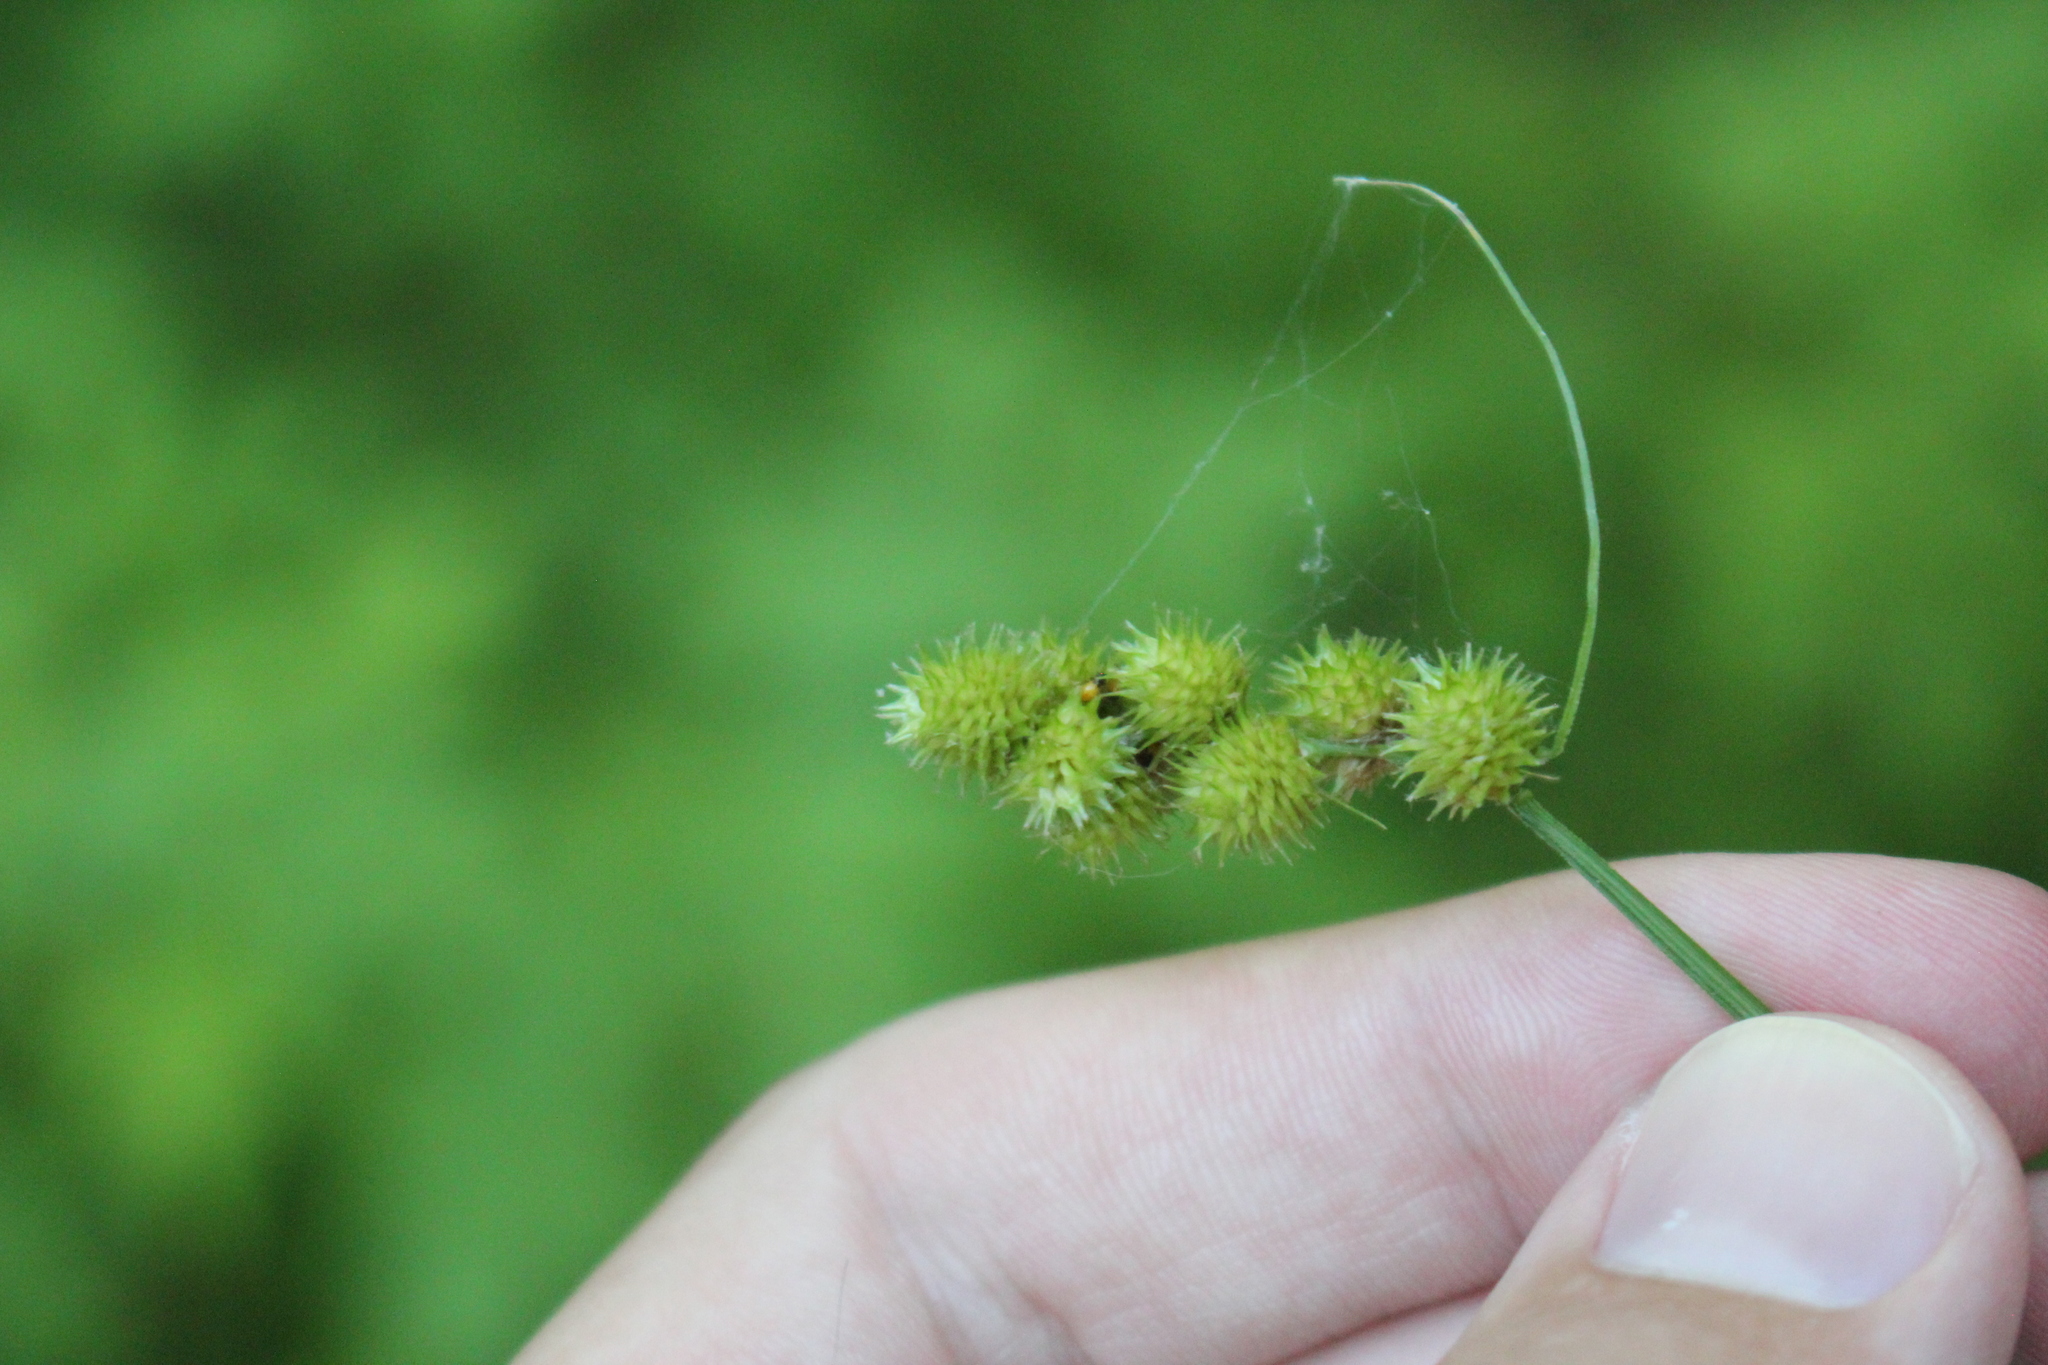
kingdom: Plantae
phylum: Tracheophyta
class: Liliopsida
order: Poales
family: Cyperaceae
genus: Carex
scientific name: Carex cristatella
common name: Crested oval sedge
